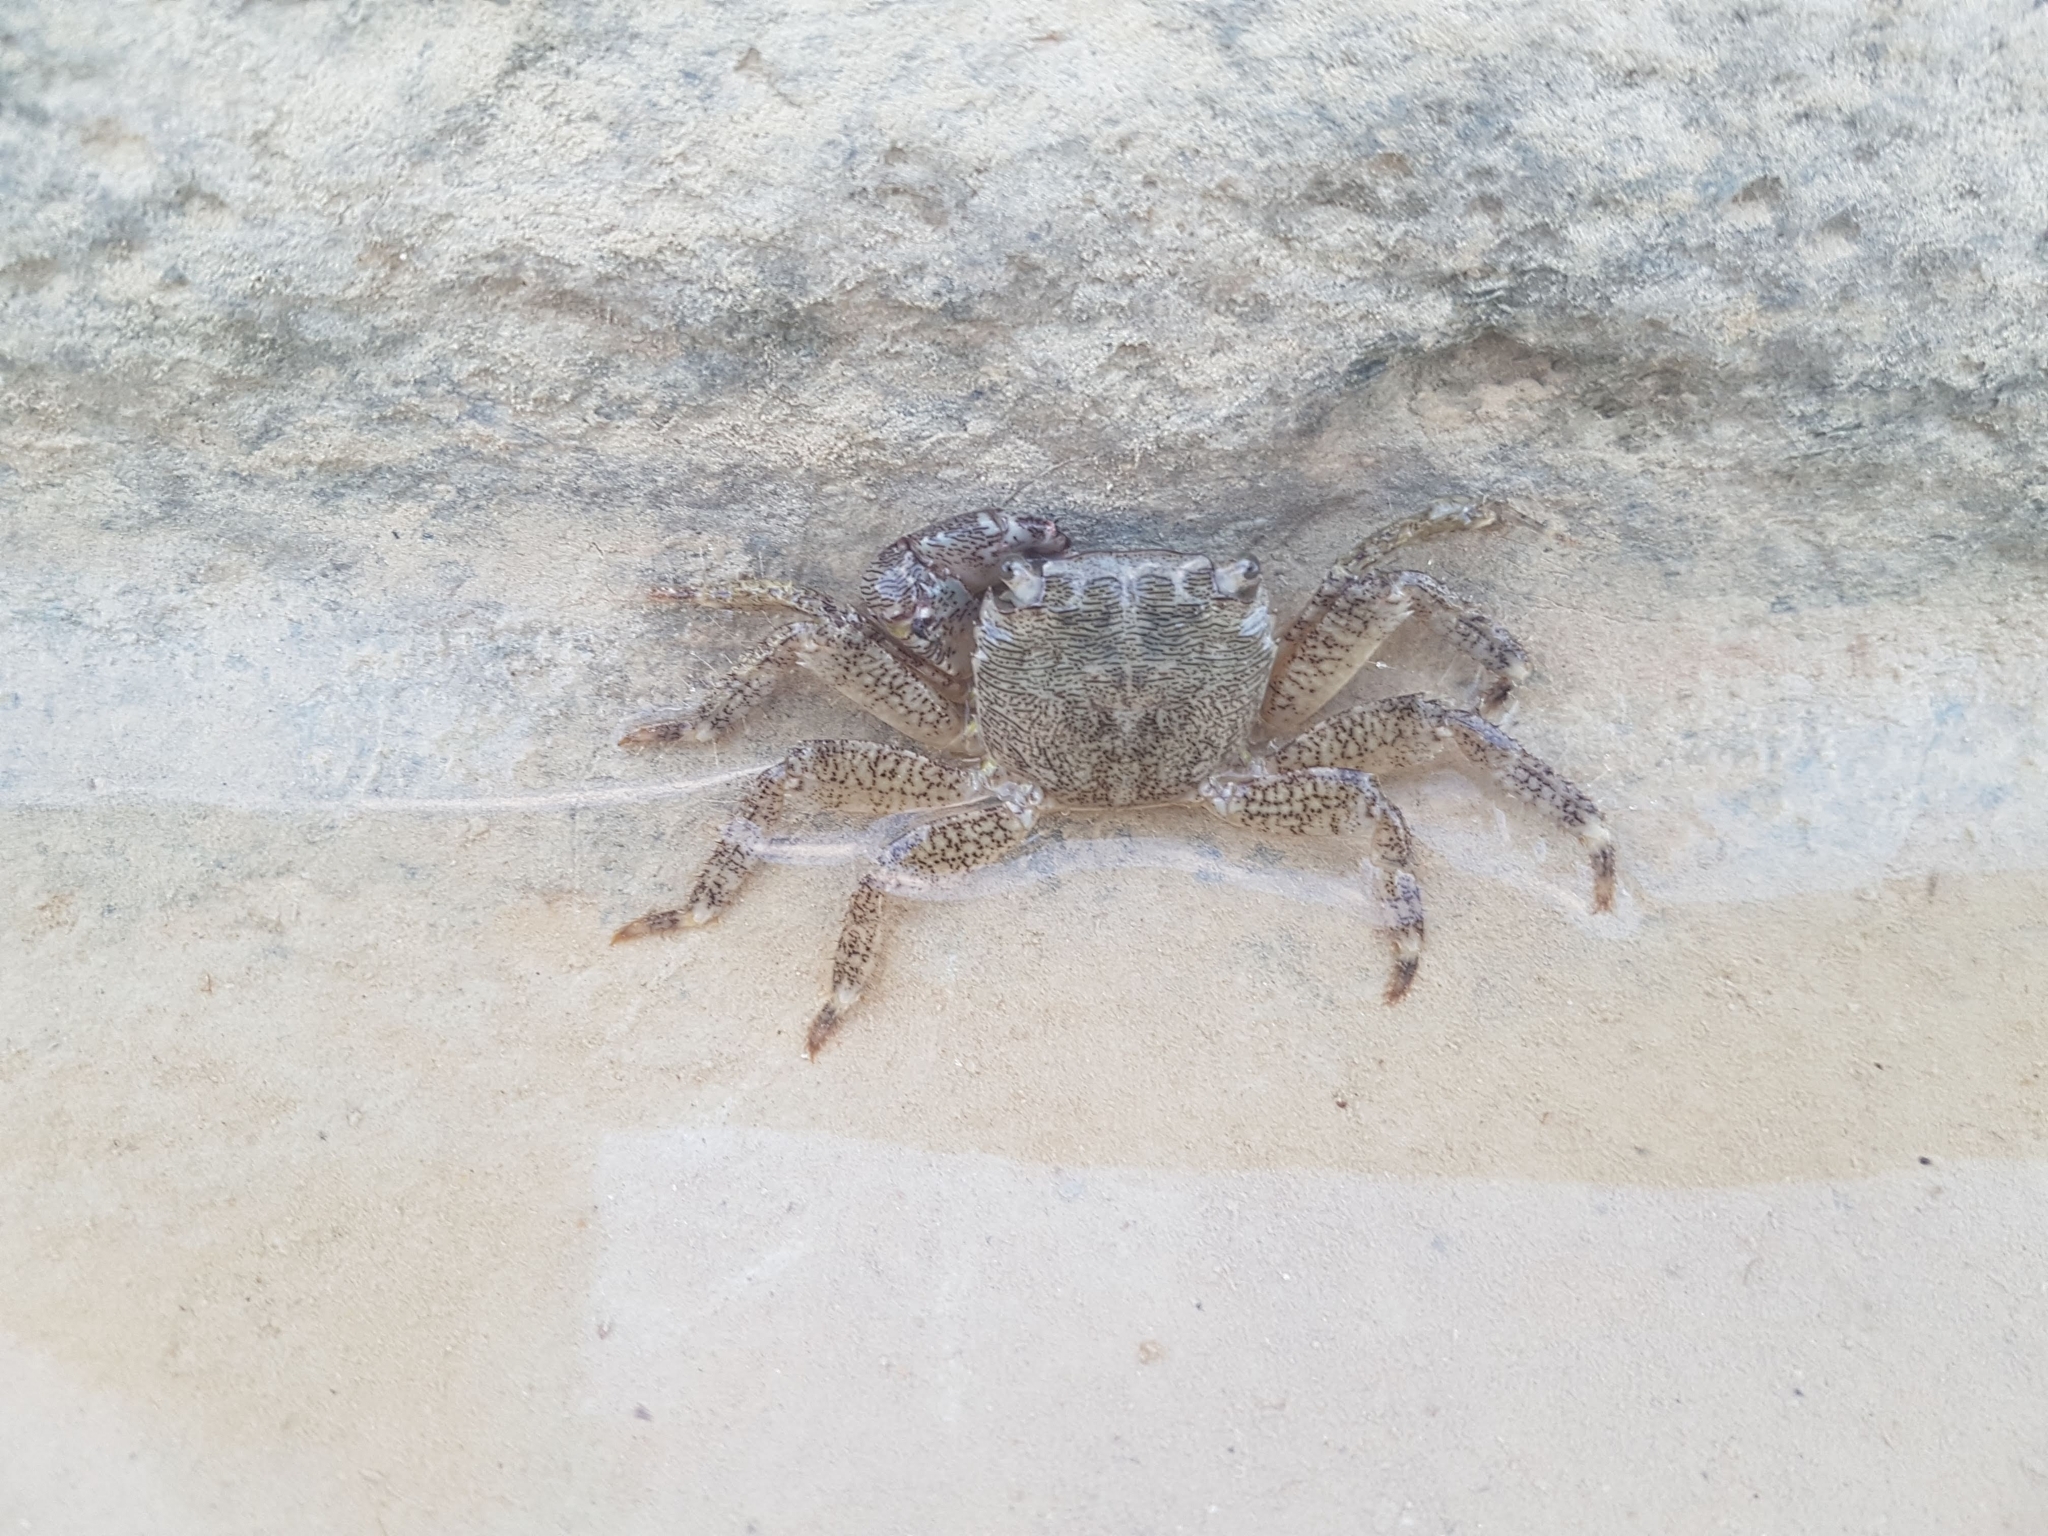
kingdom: Animalia
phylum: Arthropoda
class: Malacostraca
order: Decapoda
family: Grapsidae
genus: Pachygrapsus
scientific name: Pachygrapsus marmoratus
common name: Marbled rock crab
